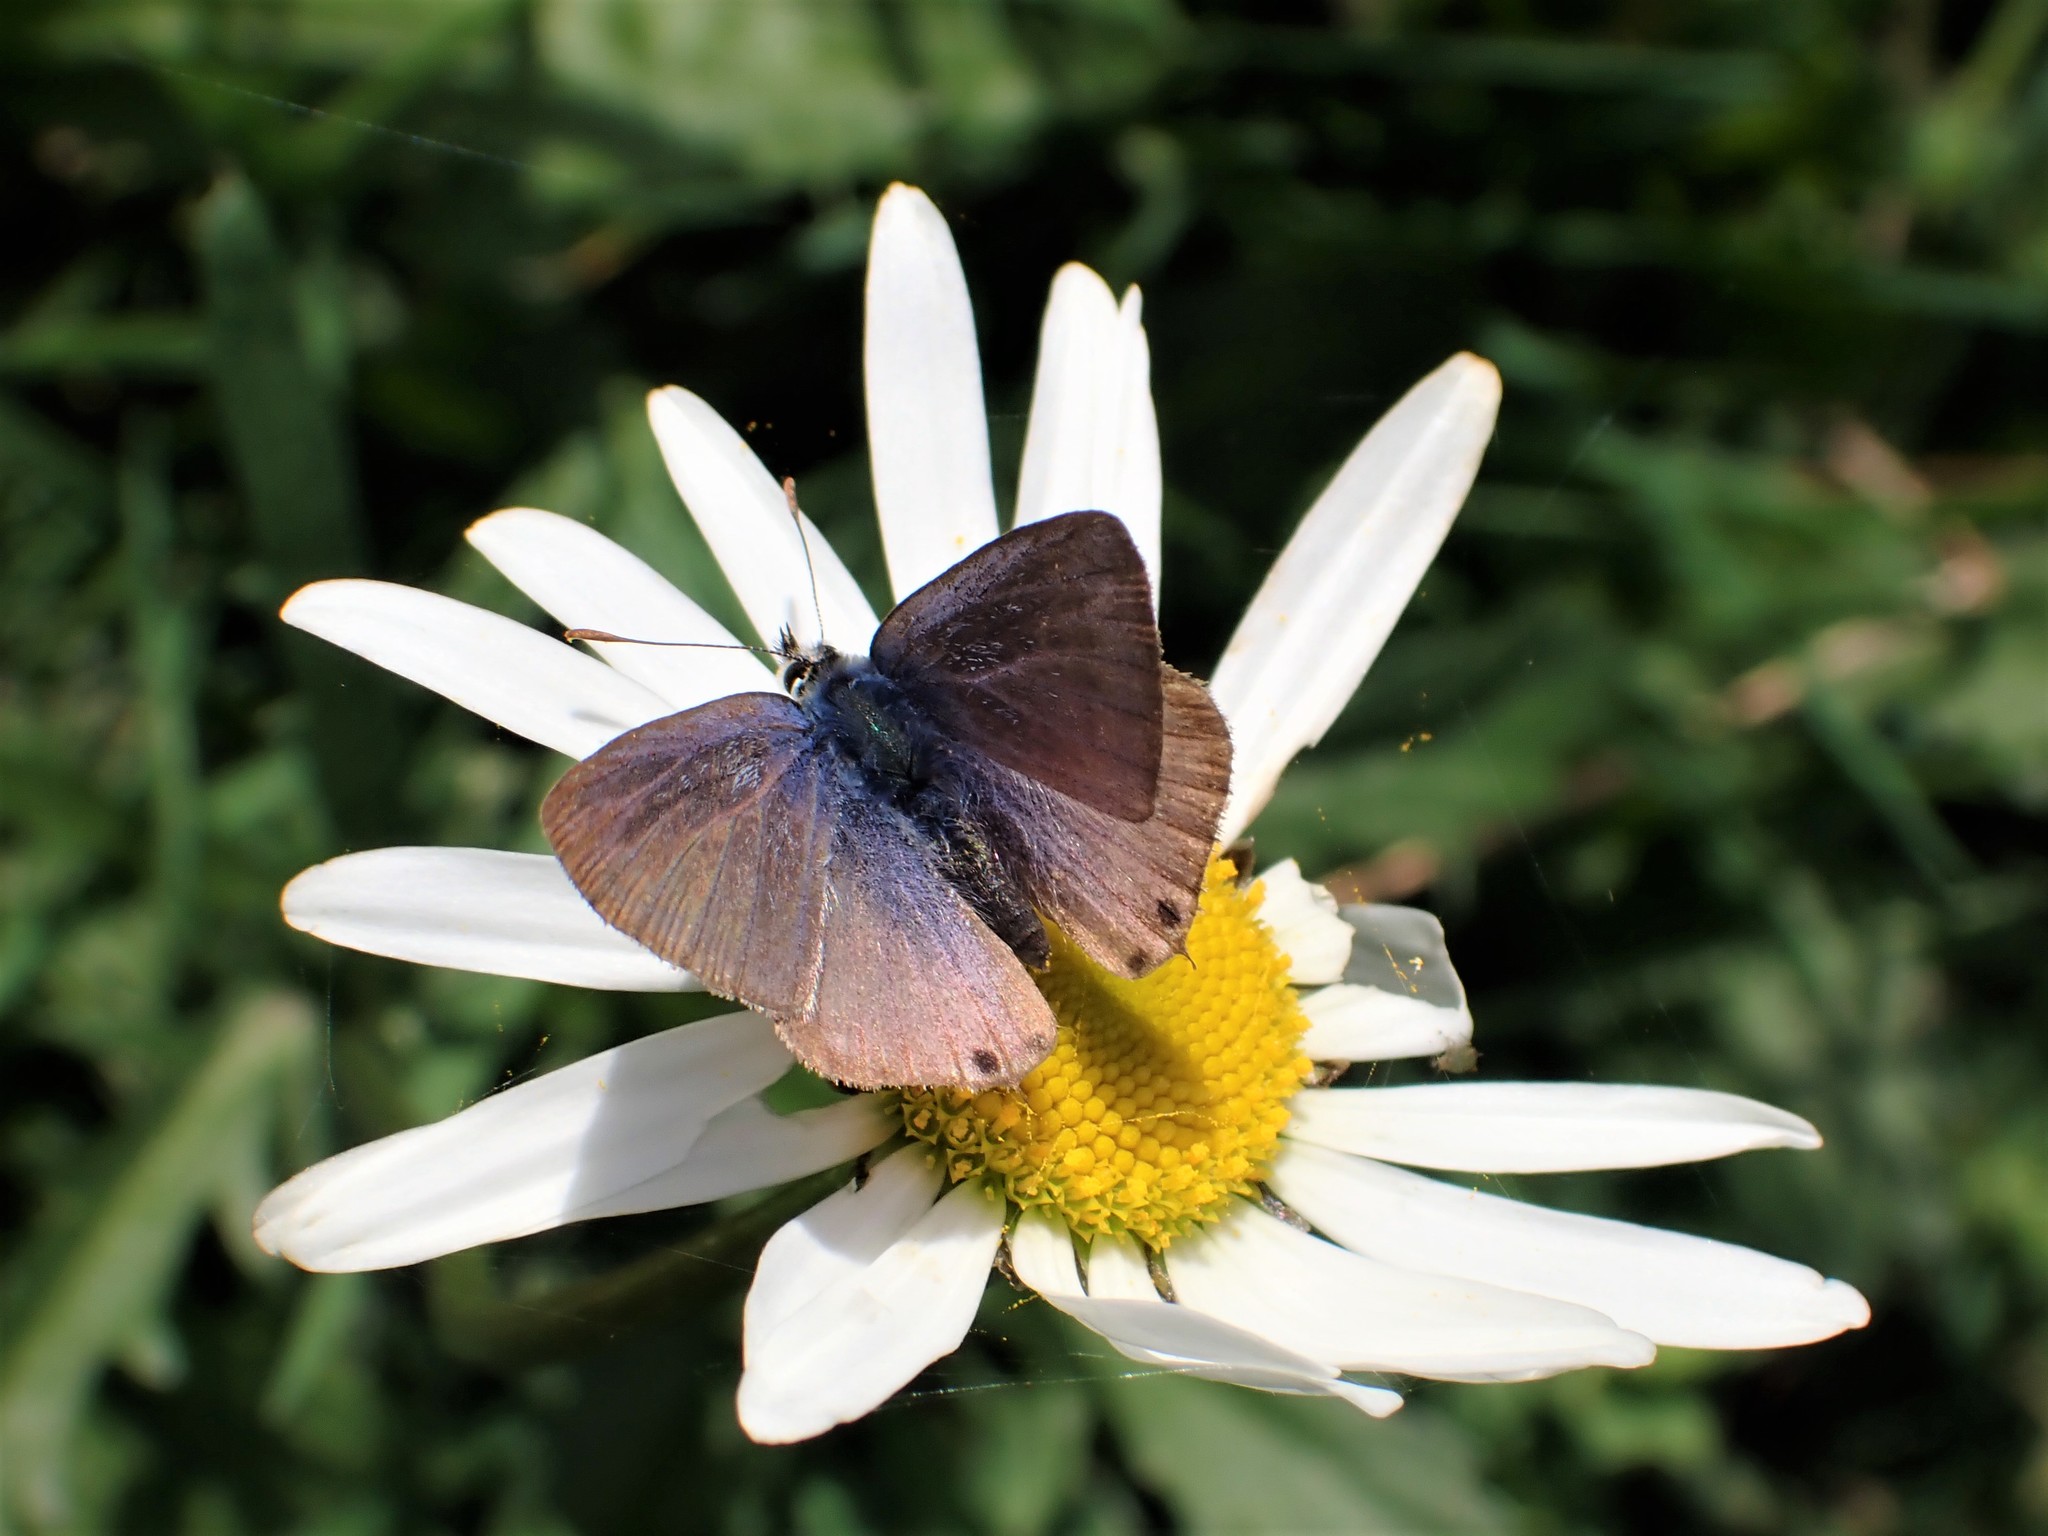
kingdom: Animalia
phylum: Arthropoda
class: Insecta
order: Lepidoptera
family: Lycaenidae
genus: Lampides
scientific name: Lampides boeticus
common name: Long-tailed blue
